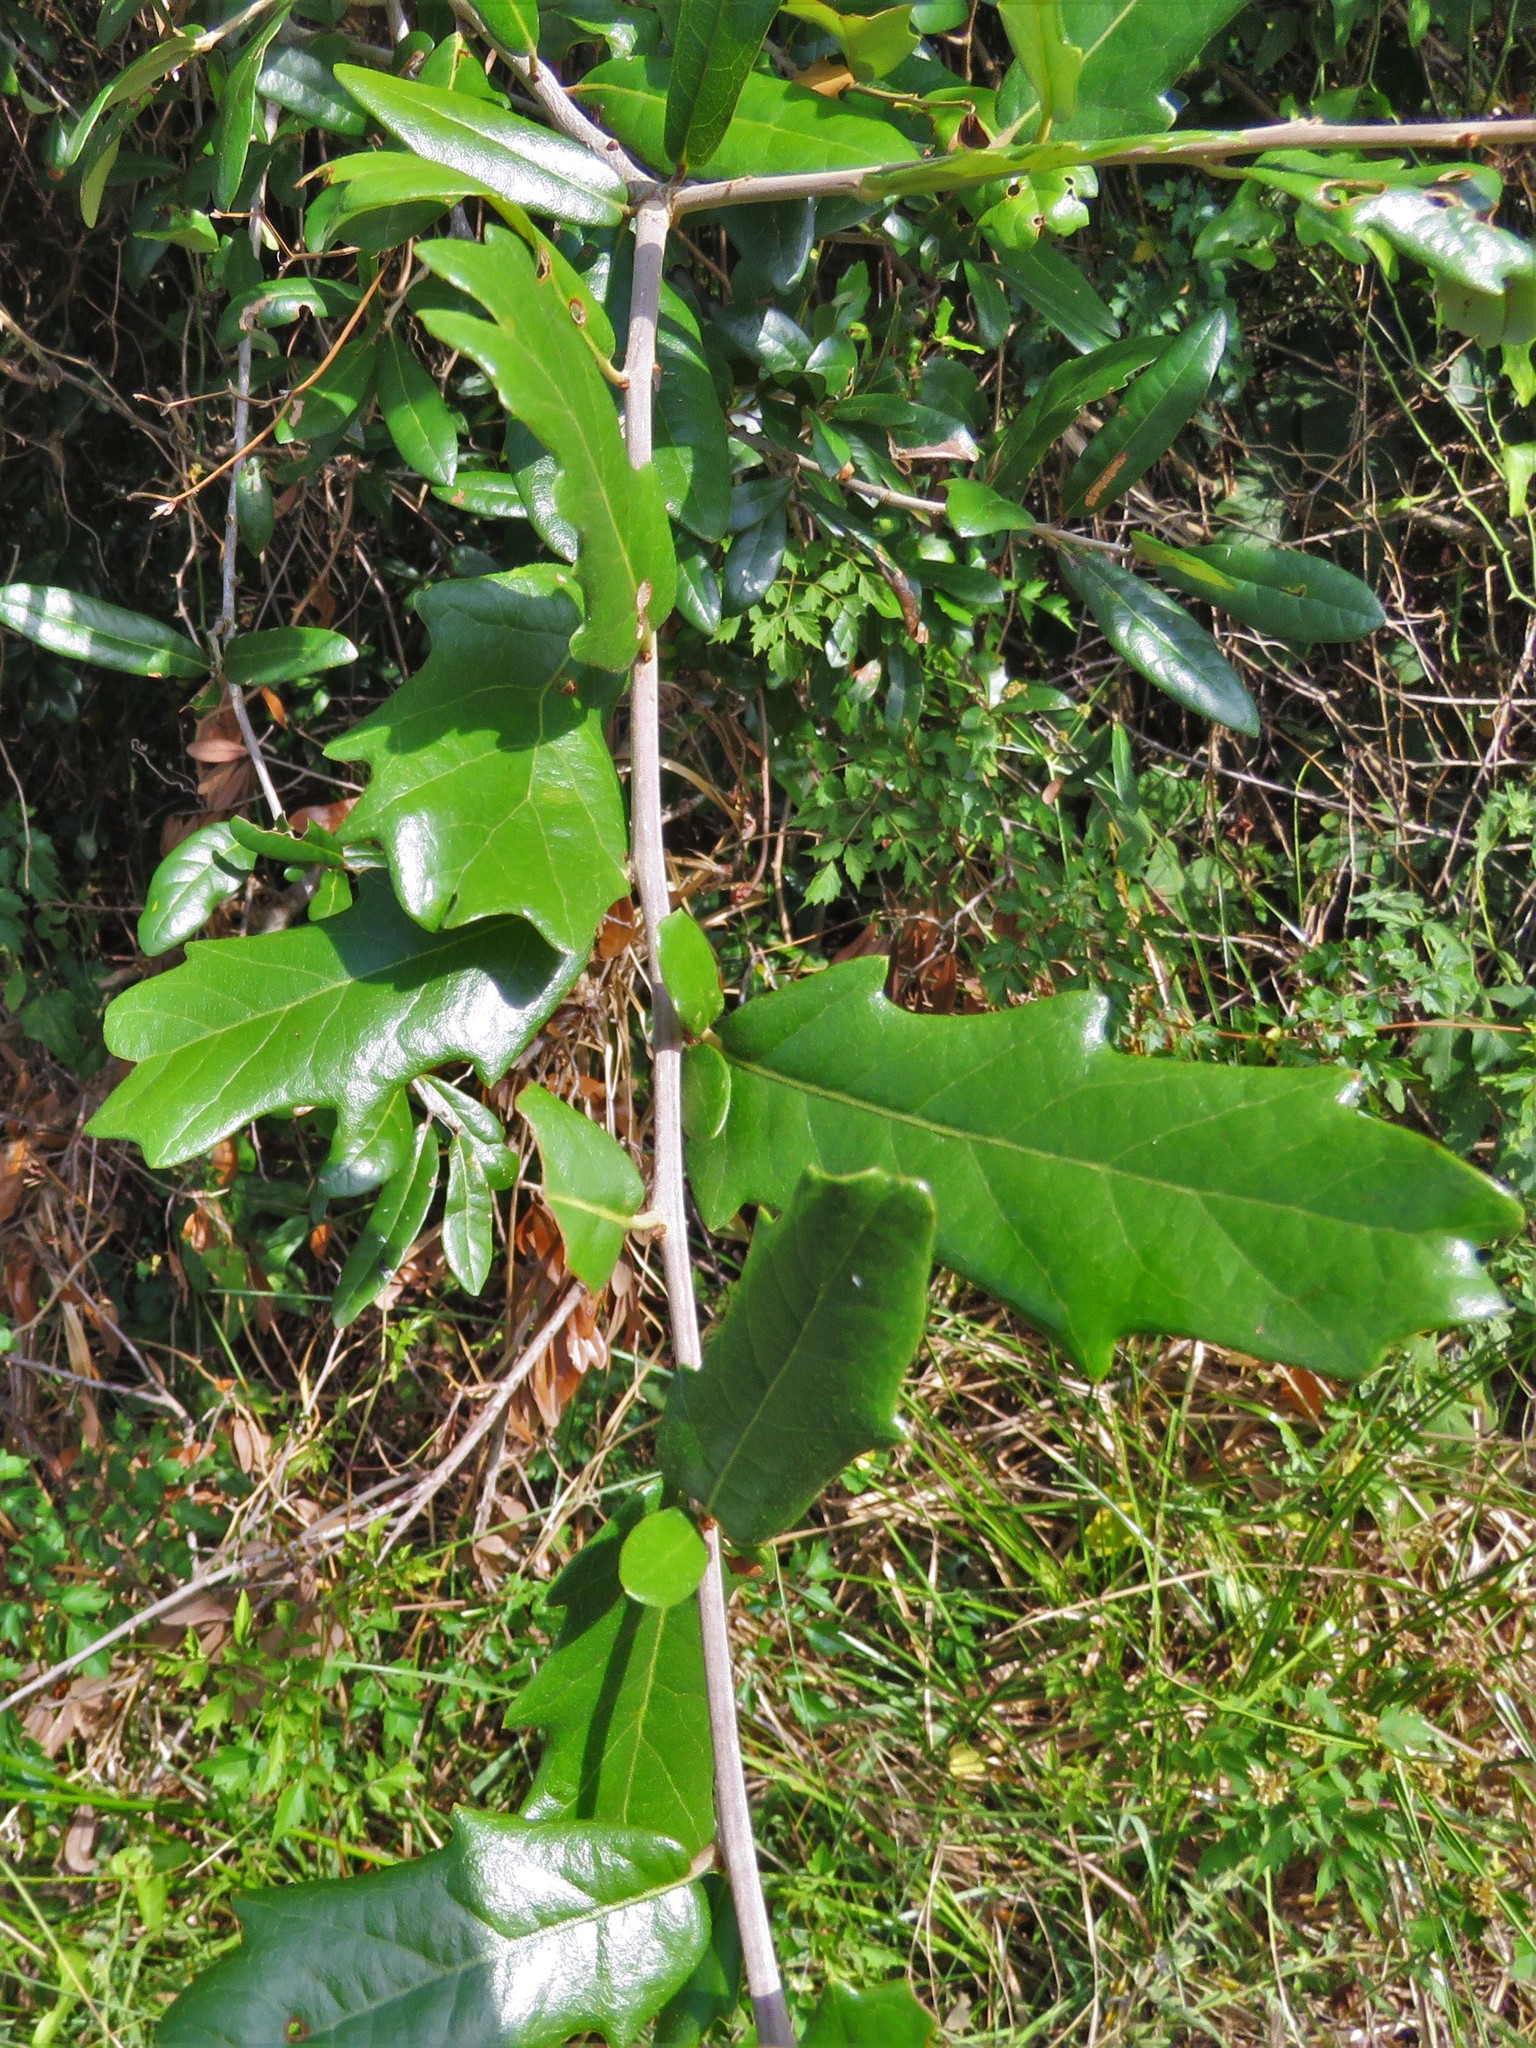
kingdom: Plantae
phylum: Tracheophyta
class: Magnoliopsida
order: Fagales
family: Fagaceae
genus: Quercus
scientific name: Quercus virginiana
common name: Southern live oak
